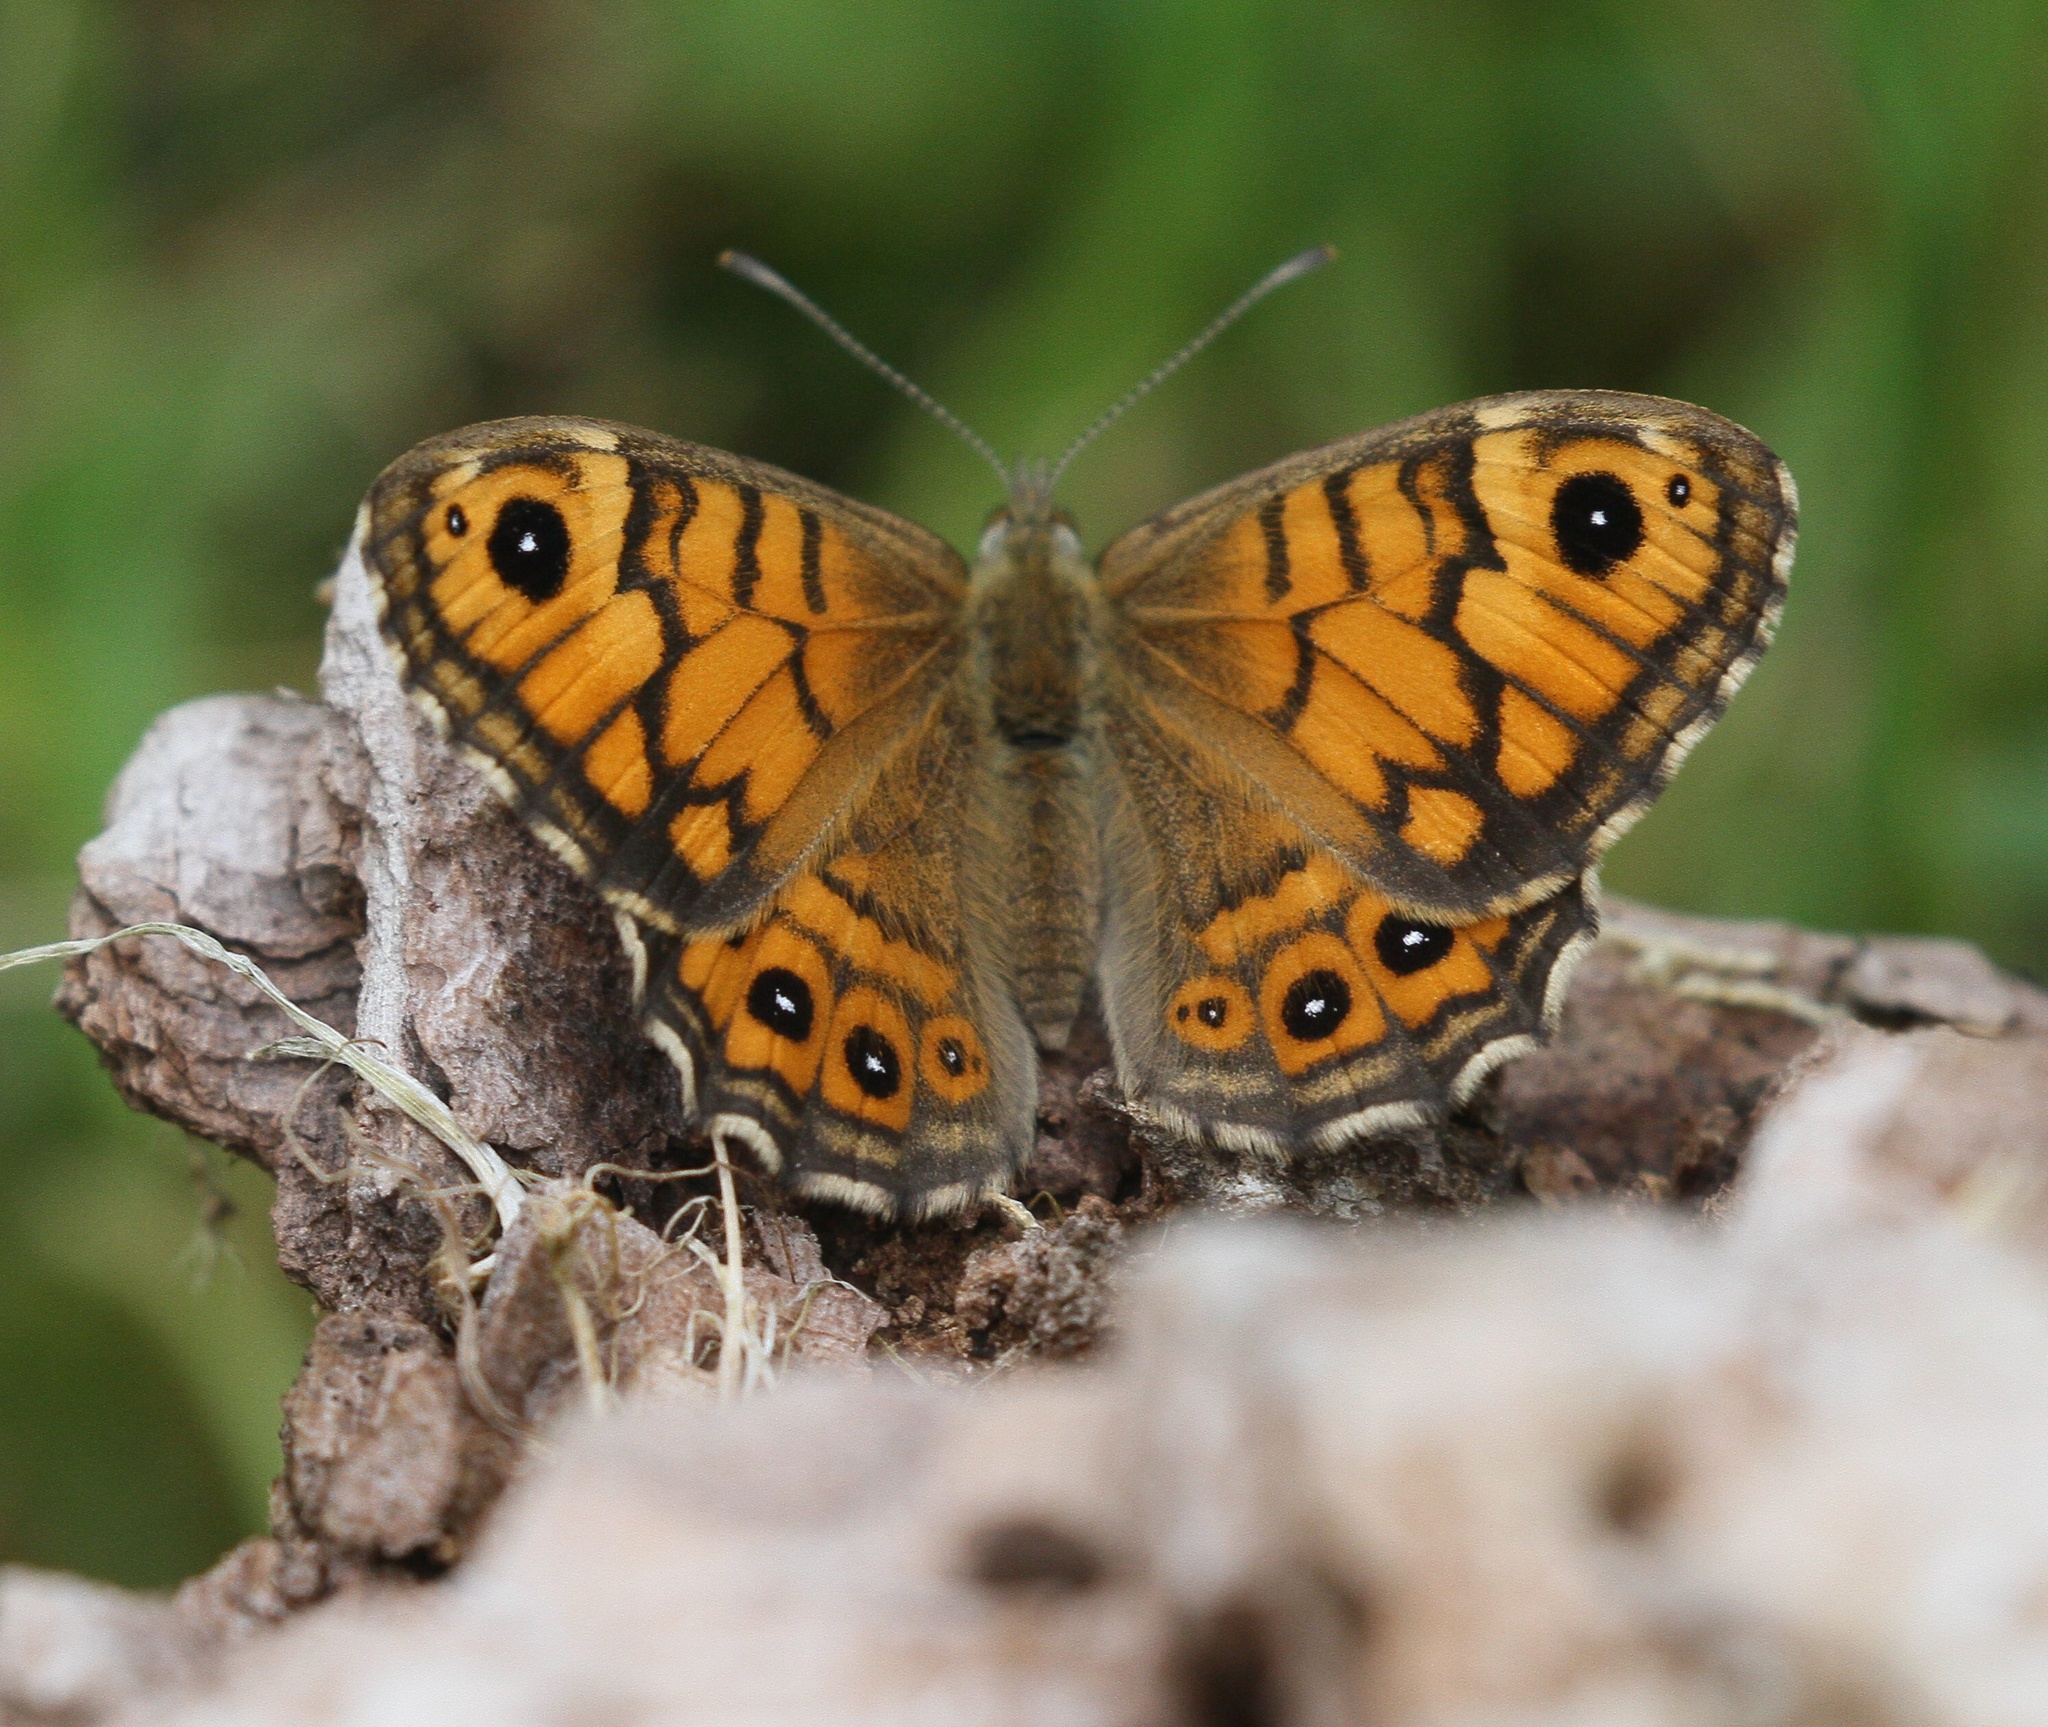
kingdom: Animalia
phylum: Arthropoda
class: Insecta
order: Lepidoptera
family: Nymphalidae
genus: Pararge
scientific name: Pararge Lasiommata megera
